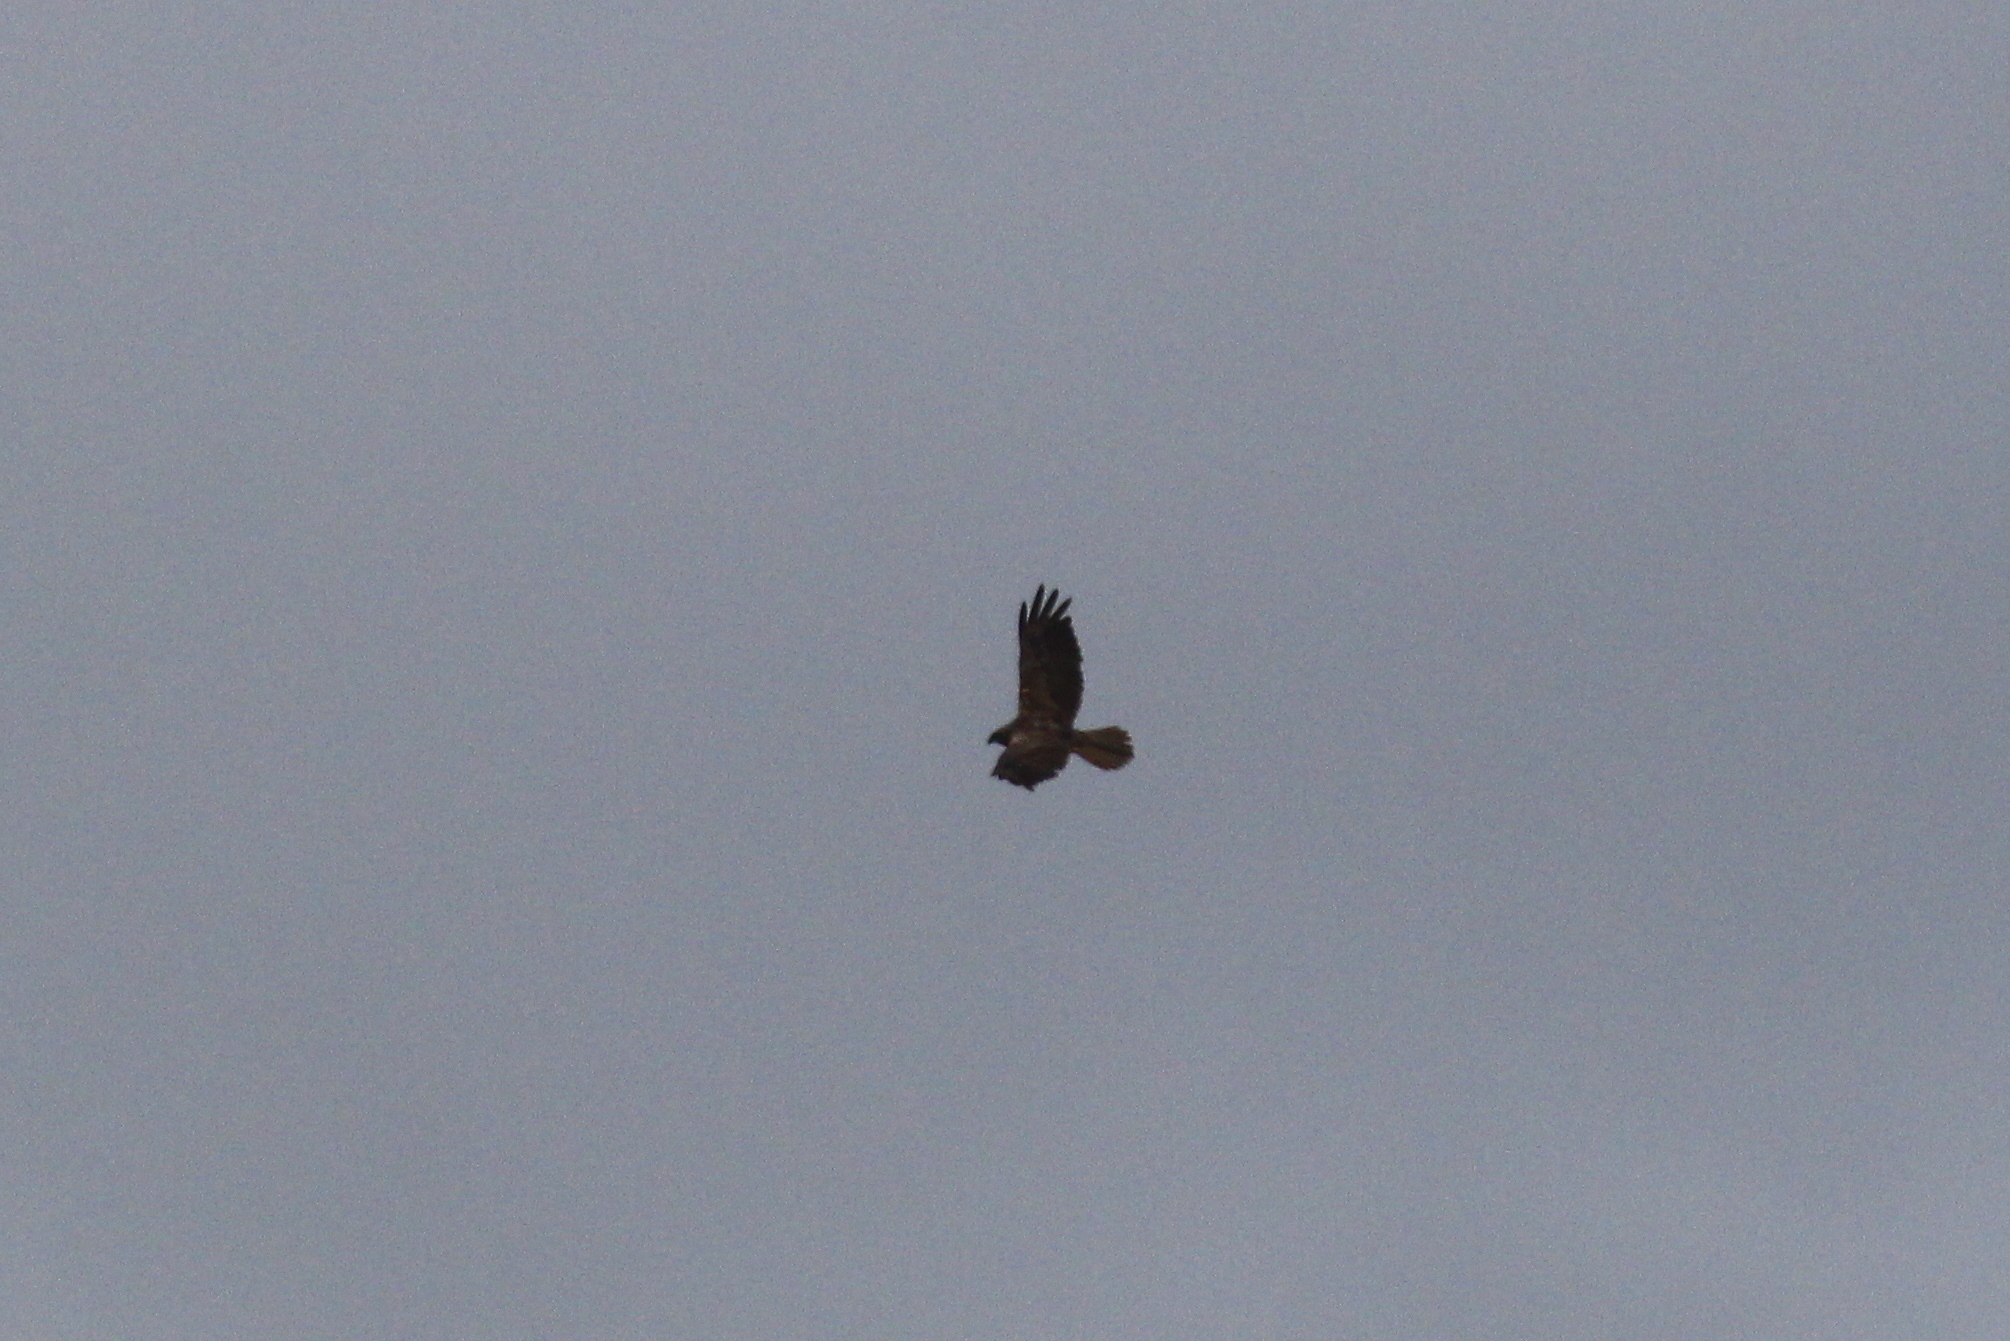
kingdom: Animalia
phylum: Chordata
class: Aves
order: Accipitriformes
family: Accipitridae
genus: Circus
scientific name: Circus aeruginosus
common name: Western marsh harrier
